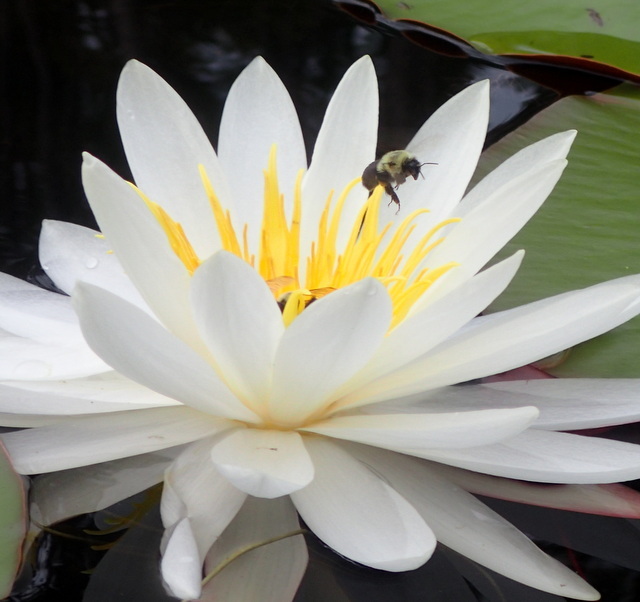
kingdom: Animalia
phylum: Arthropoda
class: Insecta
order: Hymenoptera
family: Apidae
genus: Bombus
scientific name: Bombus impatiens
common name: Common eastern bumble bee
